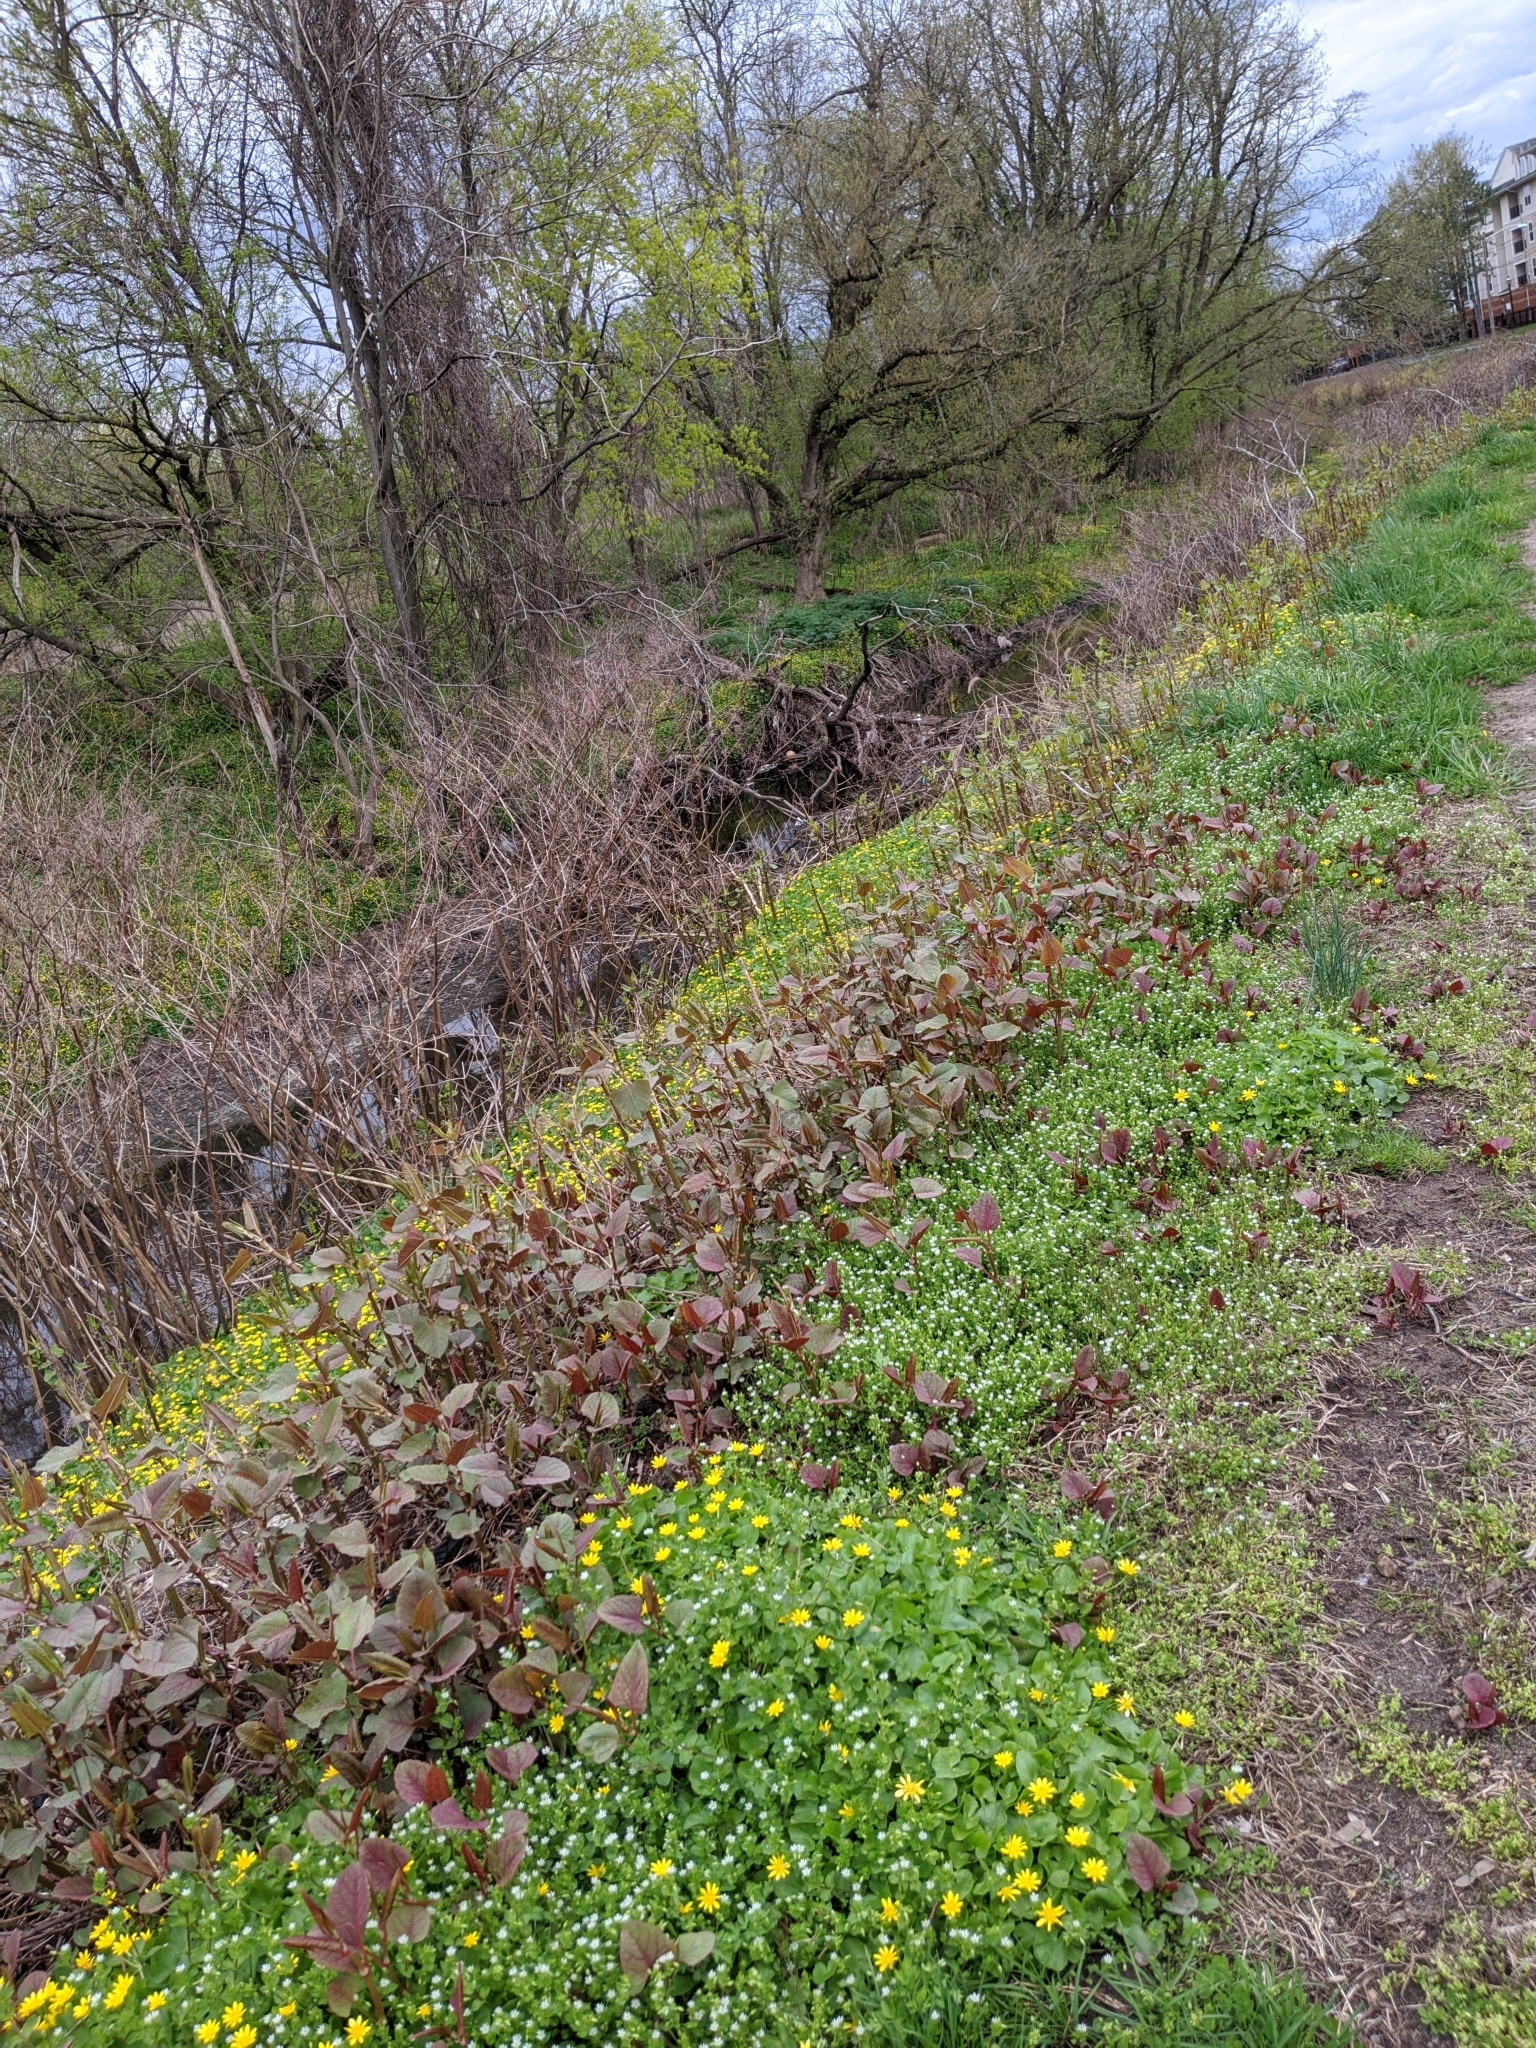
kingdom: Plantae
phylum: Tracheophyta
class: Magnoliopsida
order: Caryophyllales
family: Polygonaceae
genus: Reynoutria
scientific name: Reynoutria japonica
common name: Japanese knotweed
